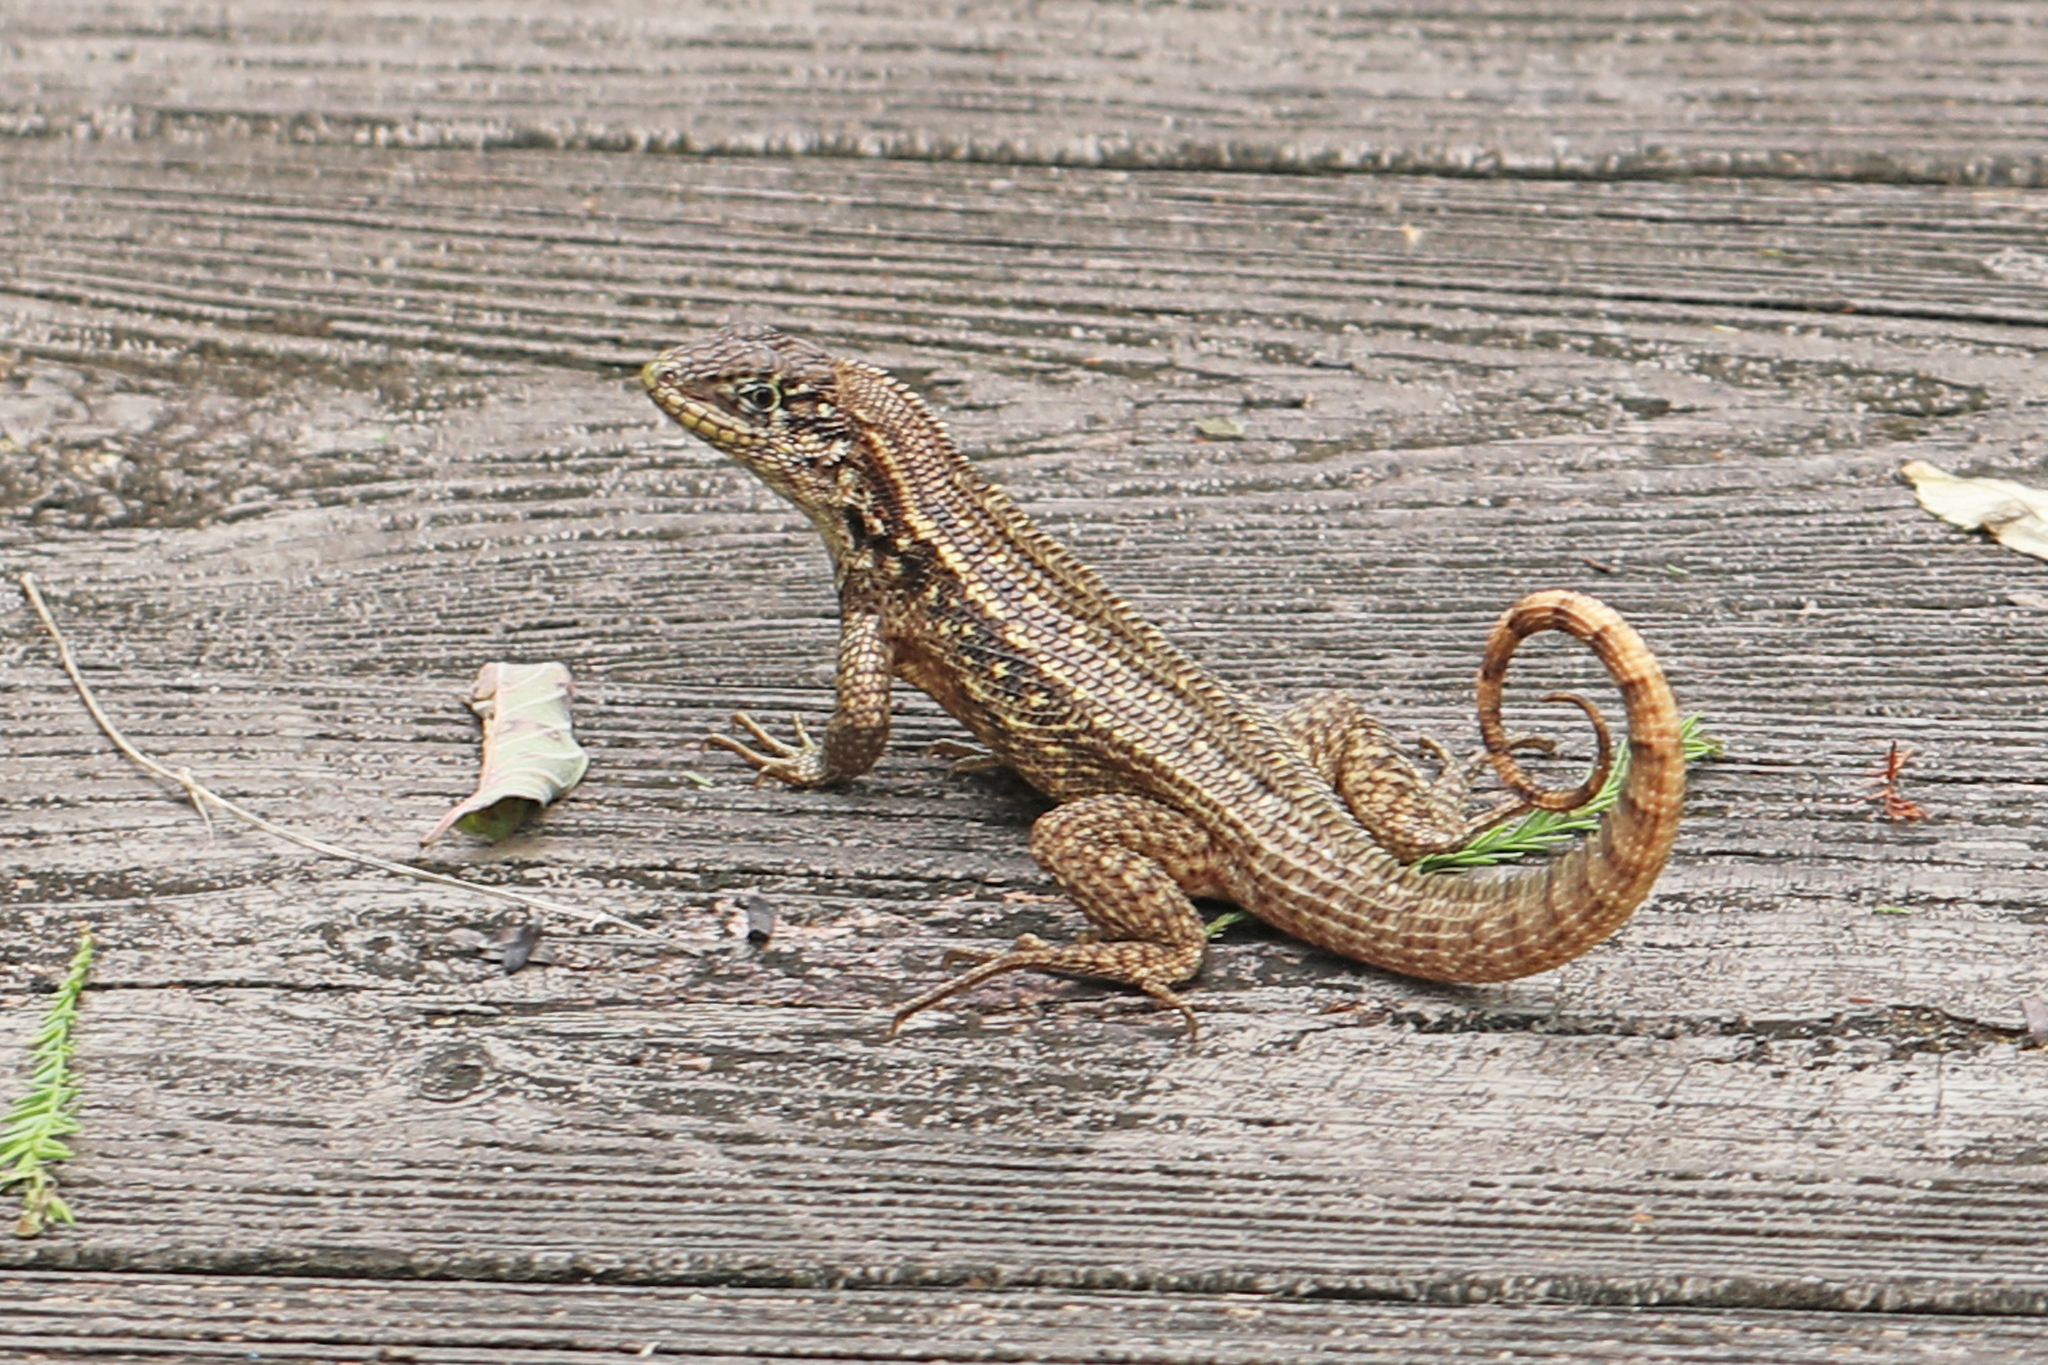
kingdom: Animalia
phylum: Chordata
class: Squamata
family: Leiocephalidae
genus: Leiocephalus
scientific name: Leiocephalus carinatus
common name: Northern curly-tailed lizard
